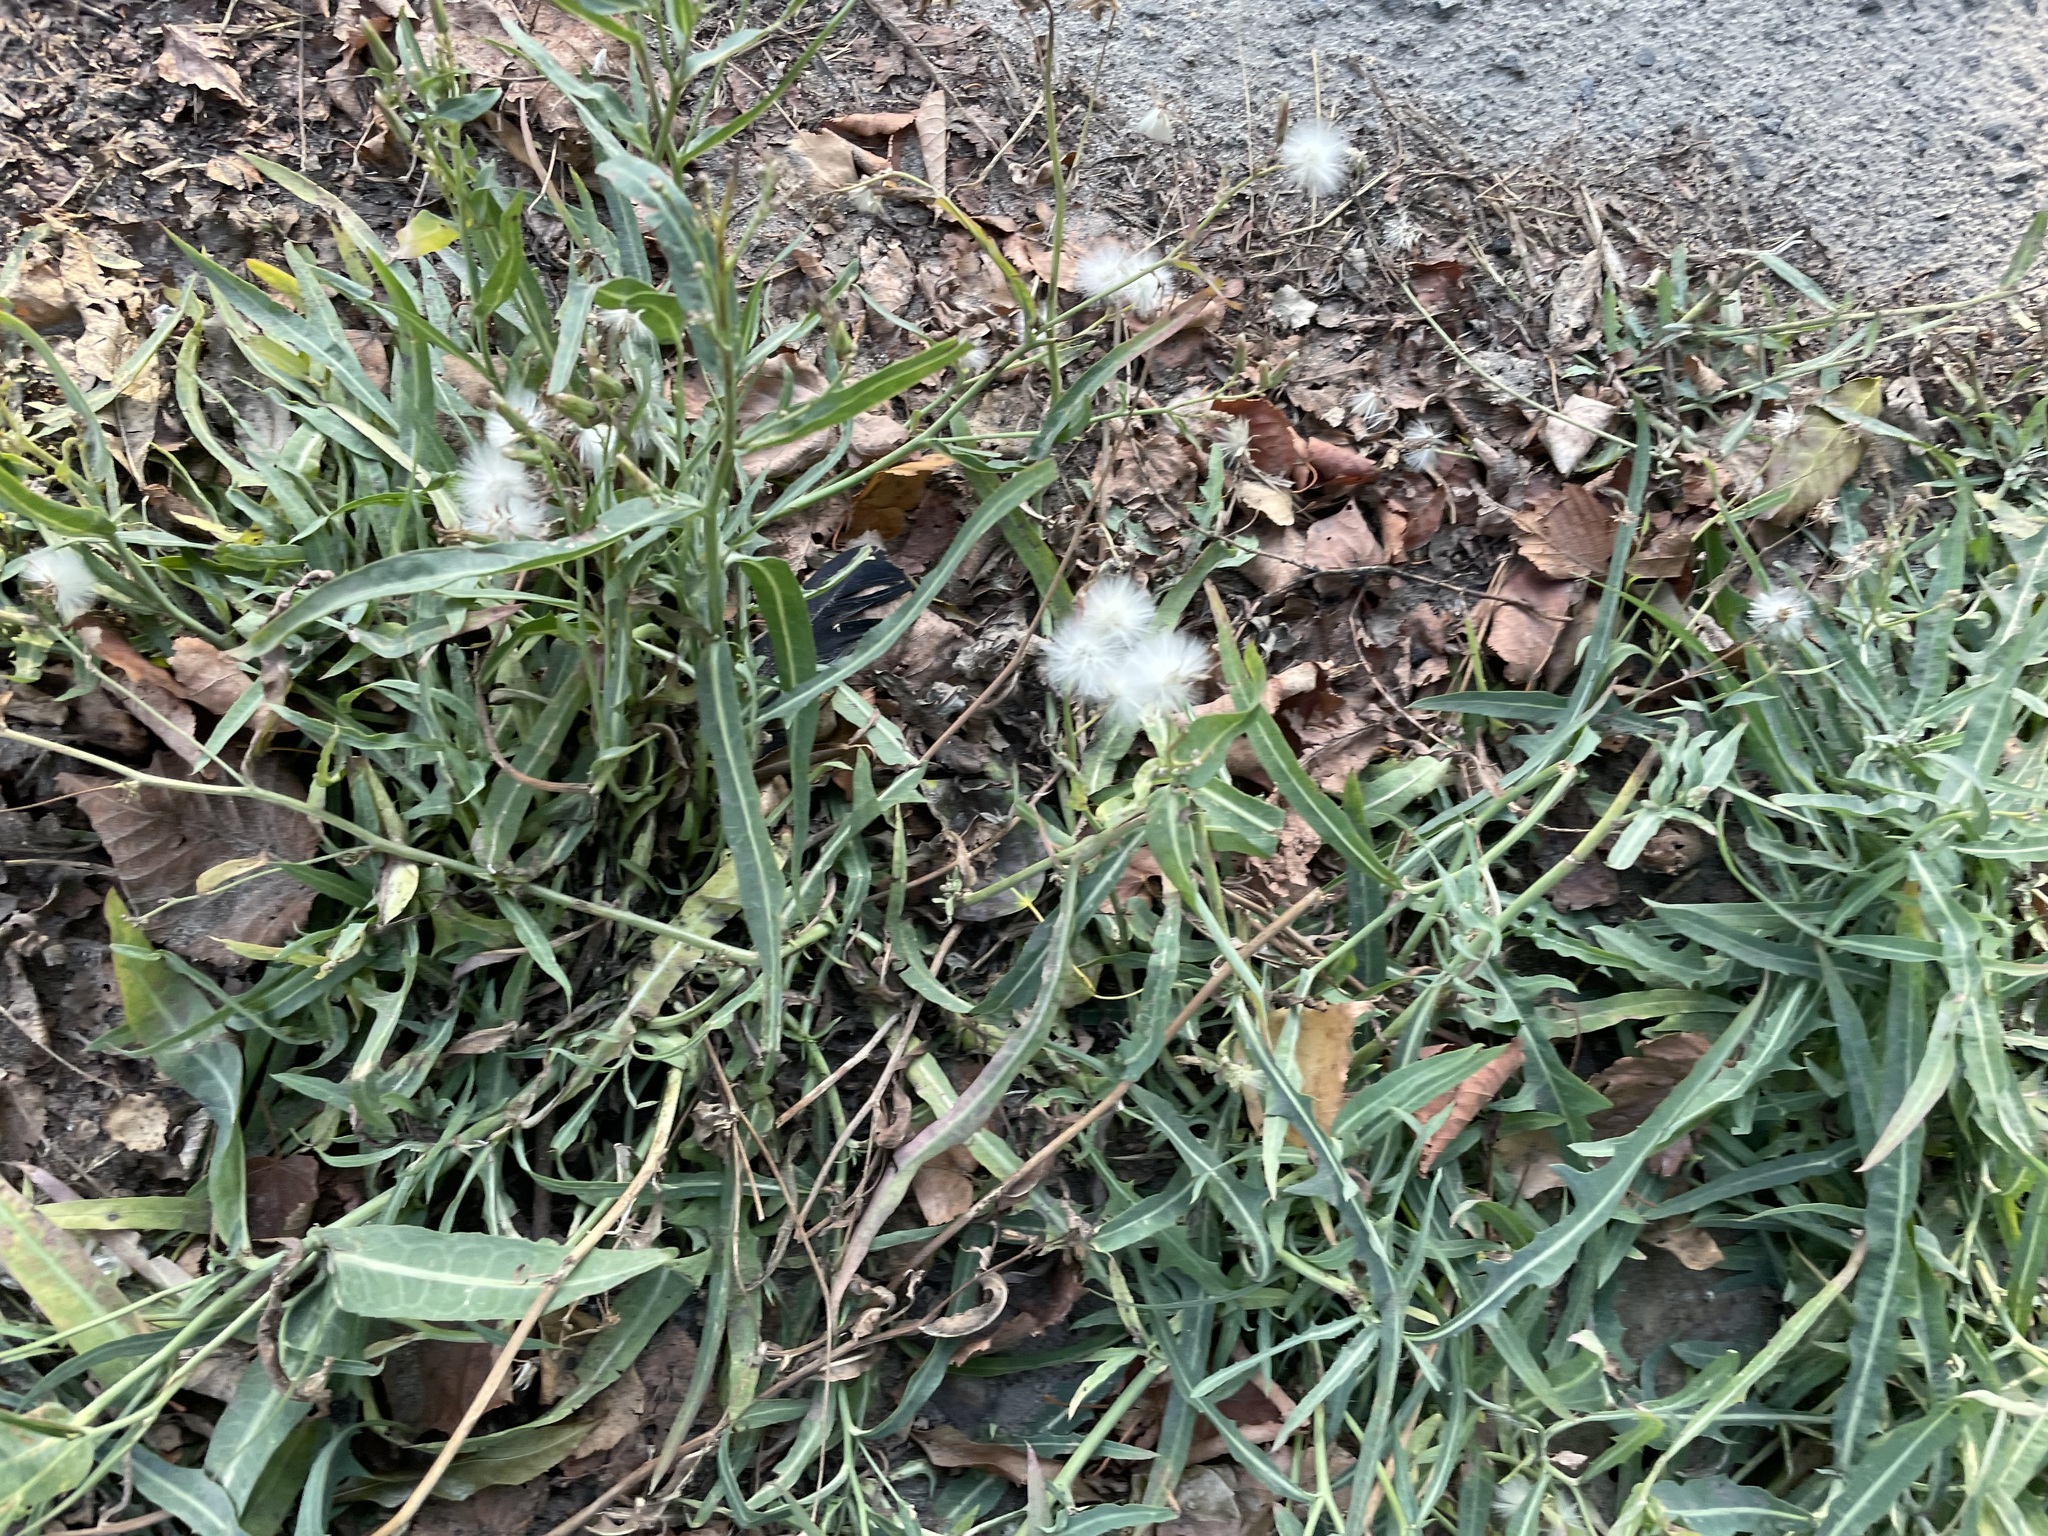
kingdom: Plantae
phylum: Tracheophyta
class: Magnoliopsida
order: Asterales
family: Asteraceae
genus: Lactuca
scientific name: Lactuca tatarica
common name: Blue lettuce
